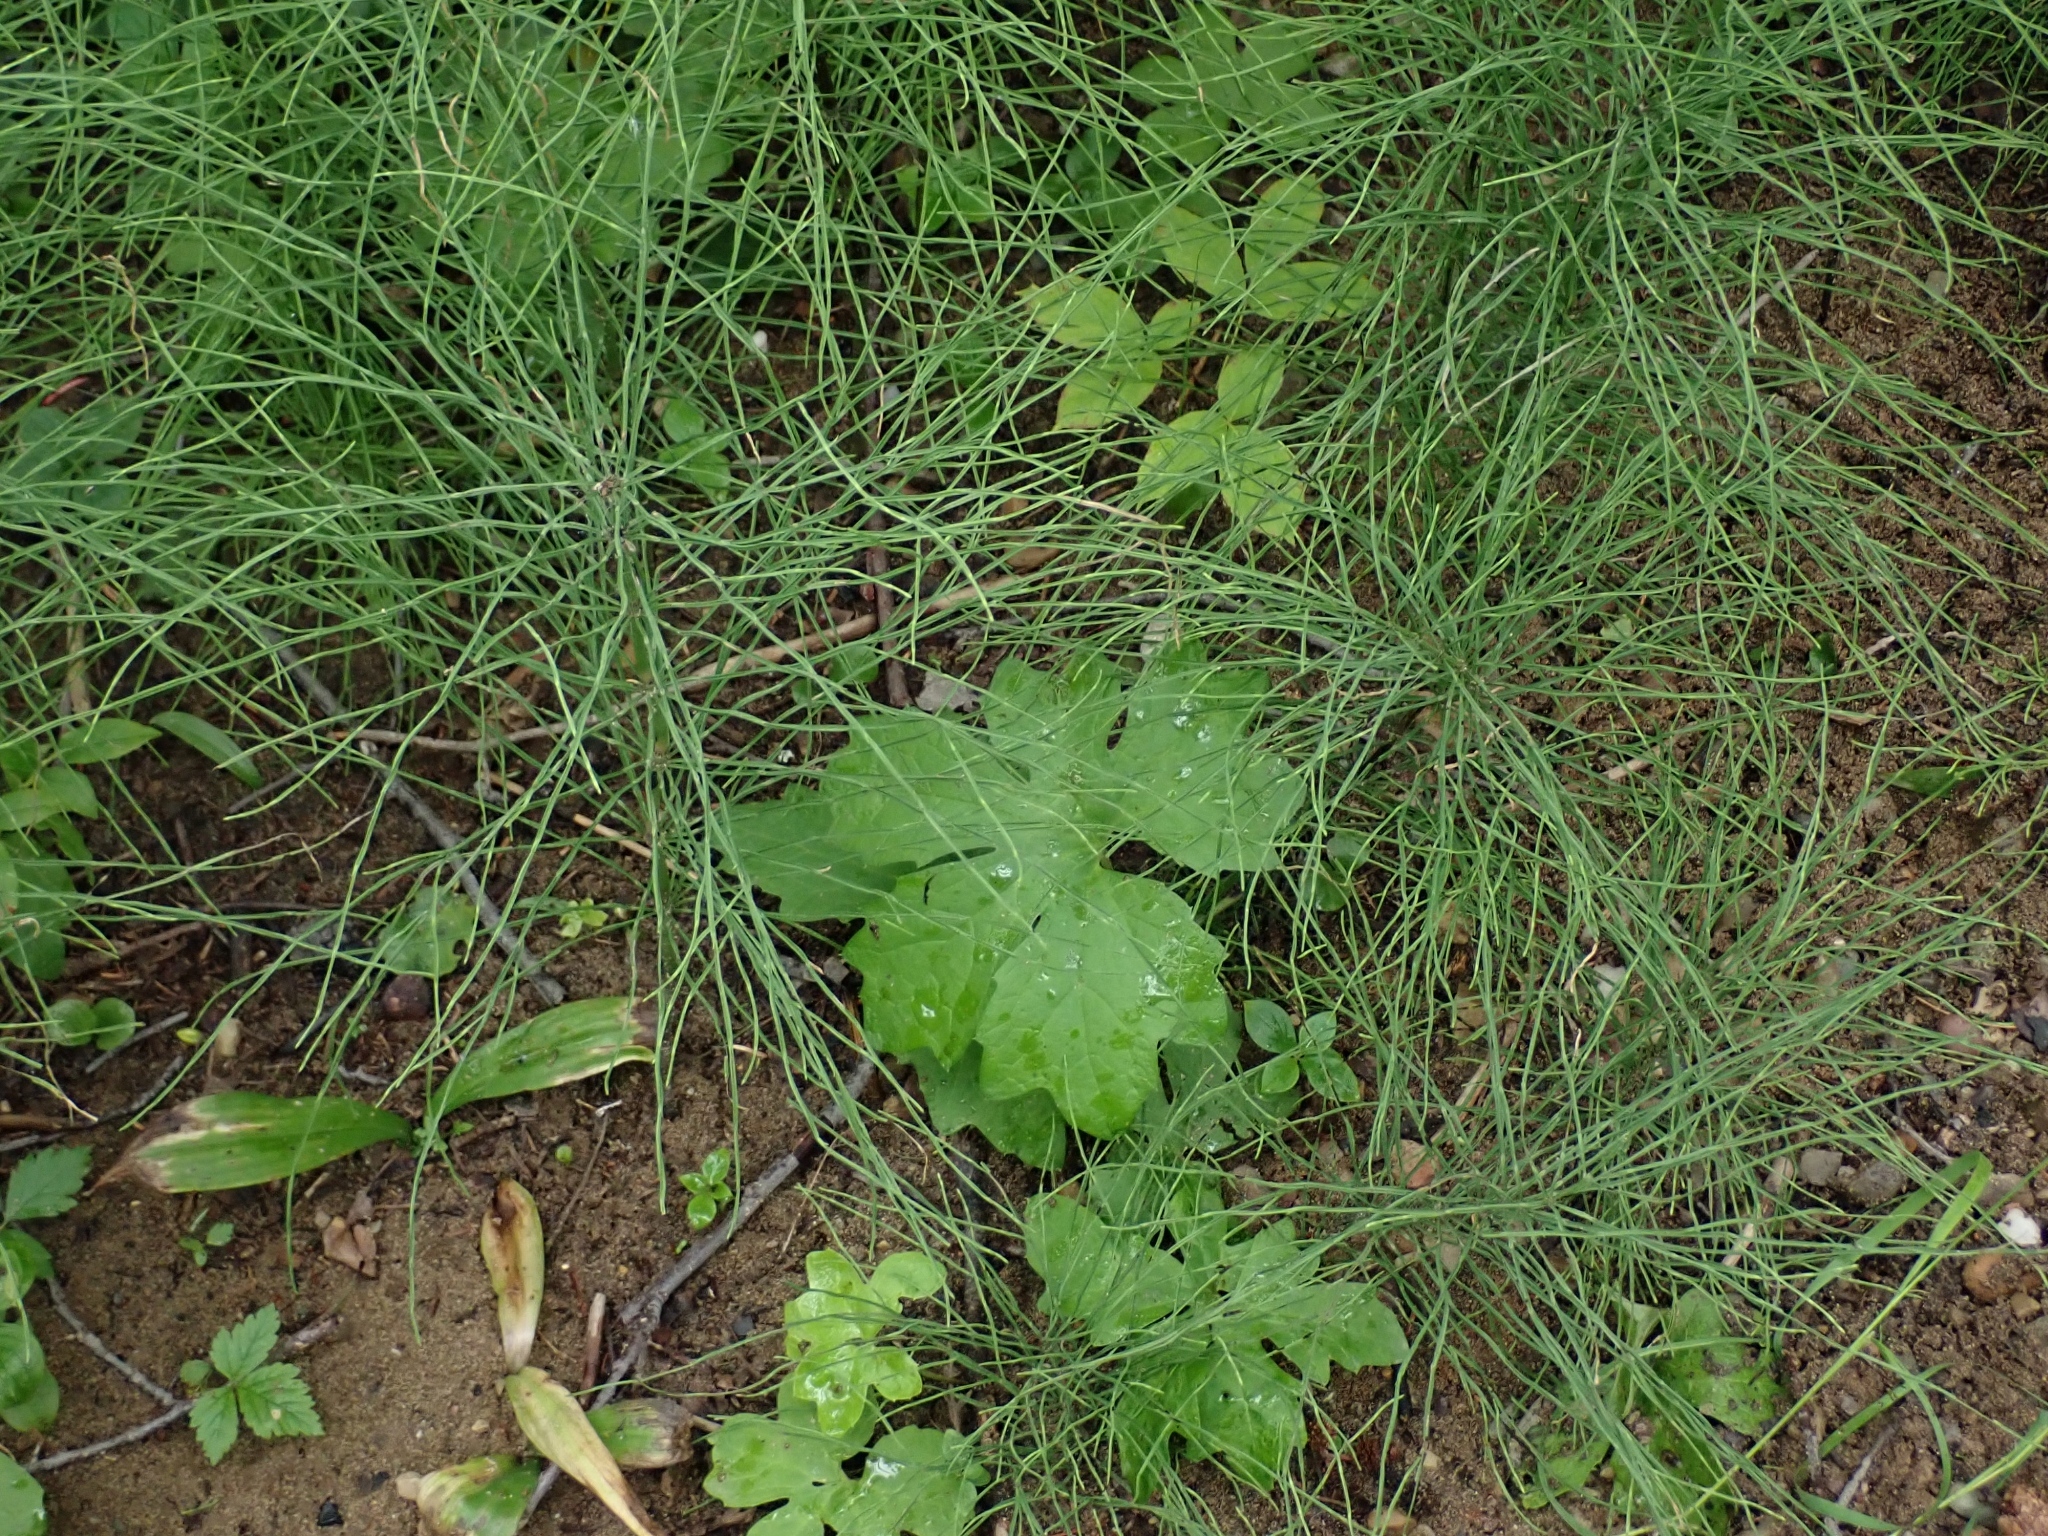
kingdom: Plantae
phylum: Tracheophyta
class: Magnoliopsida
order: Asterales
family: Asteraceae
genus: Petasites
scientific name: Petasites frigidus
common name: Arctic butterbur
